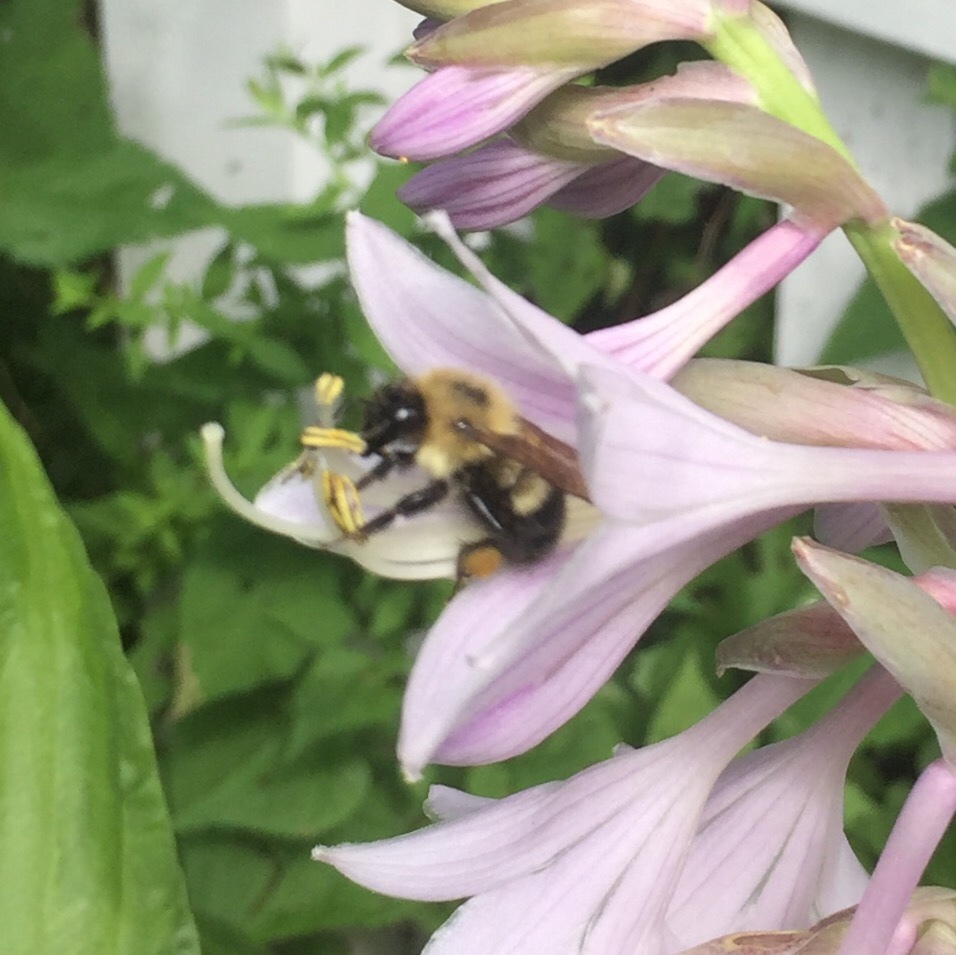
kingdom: Animalia
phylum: Arthropoda
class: Insecta
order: Hymenoptera
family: Apidae
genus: Pyrobombus
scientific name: Pyrobombus
